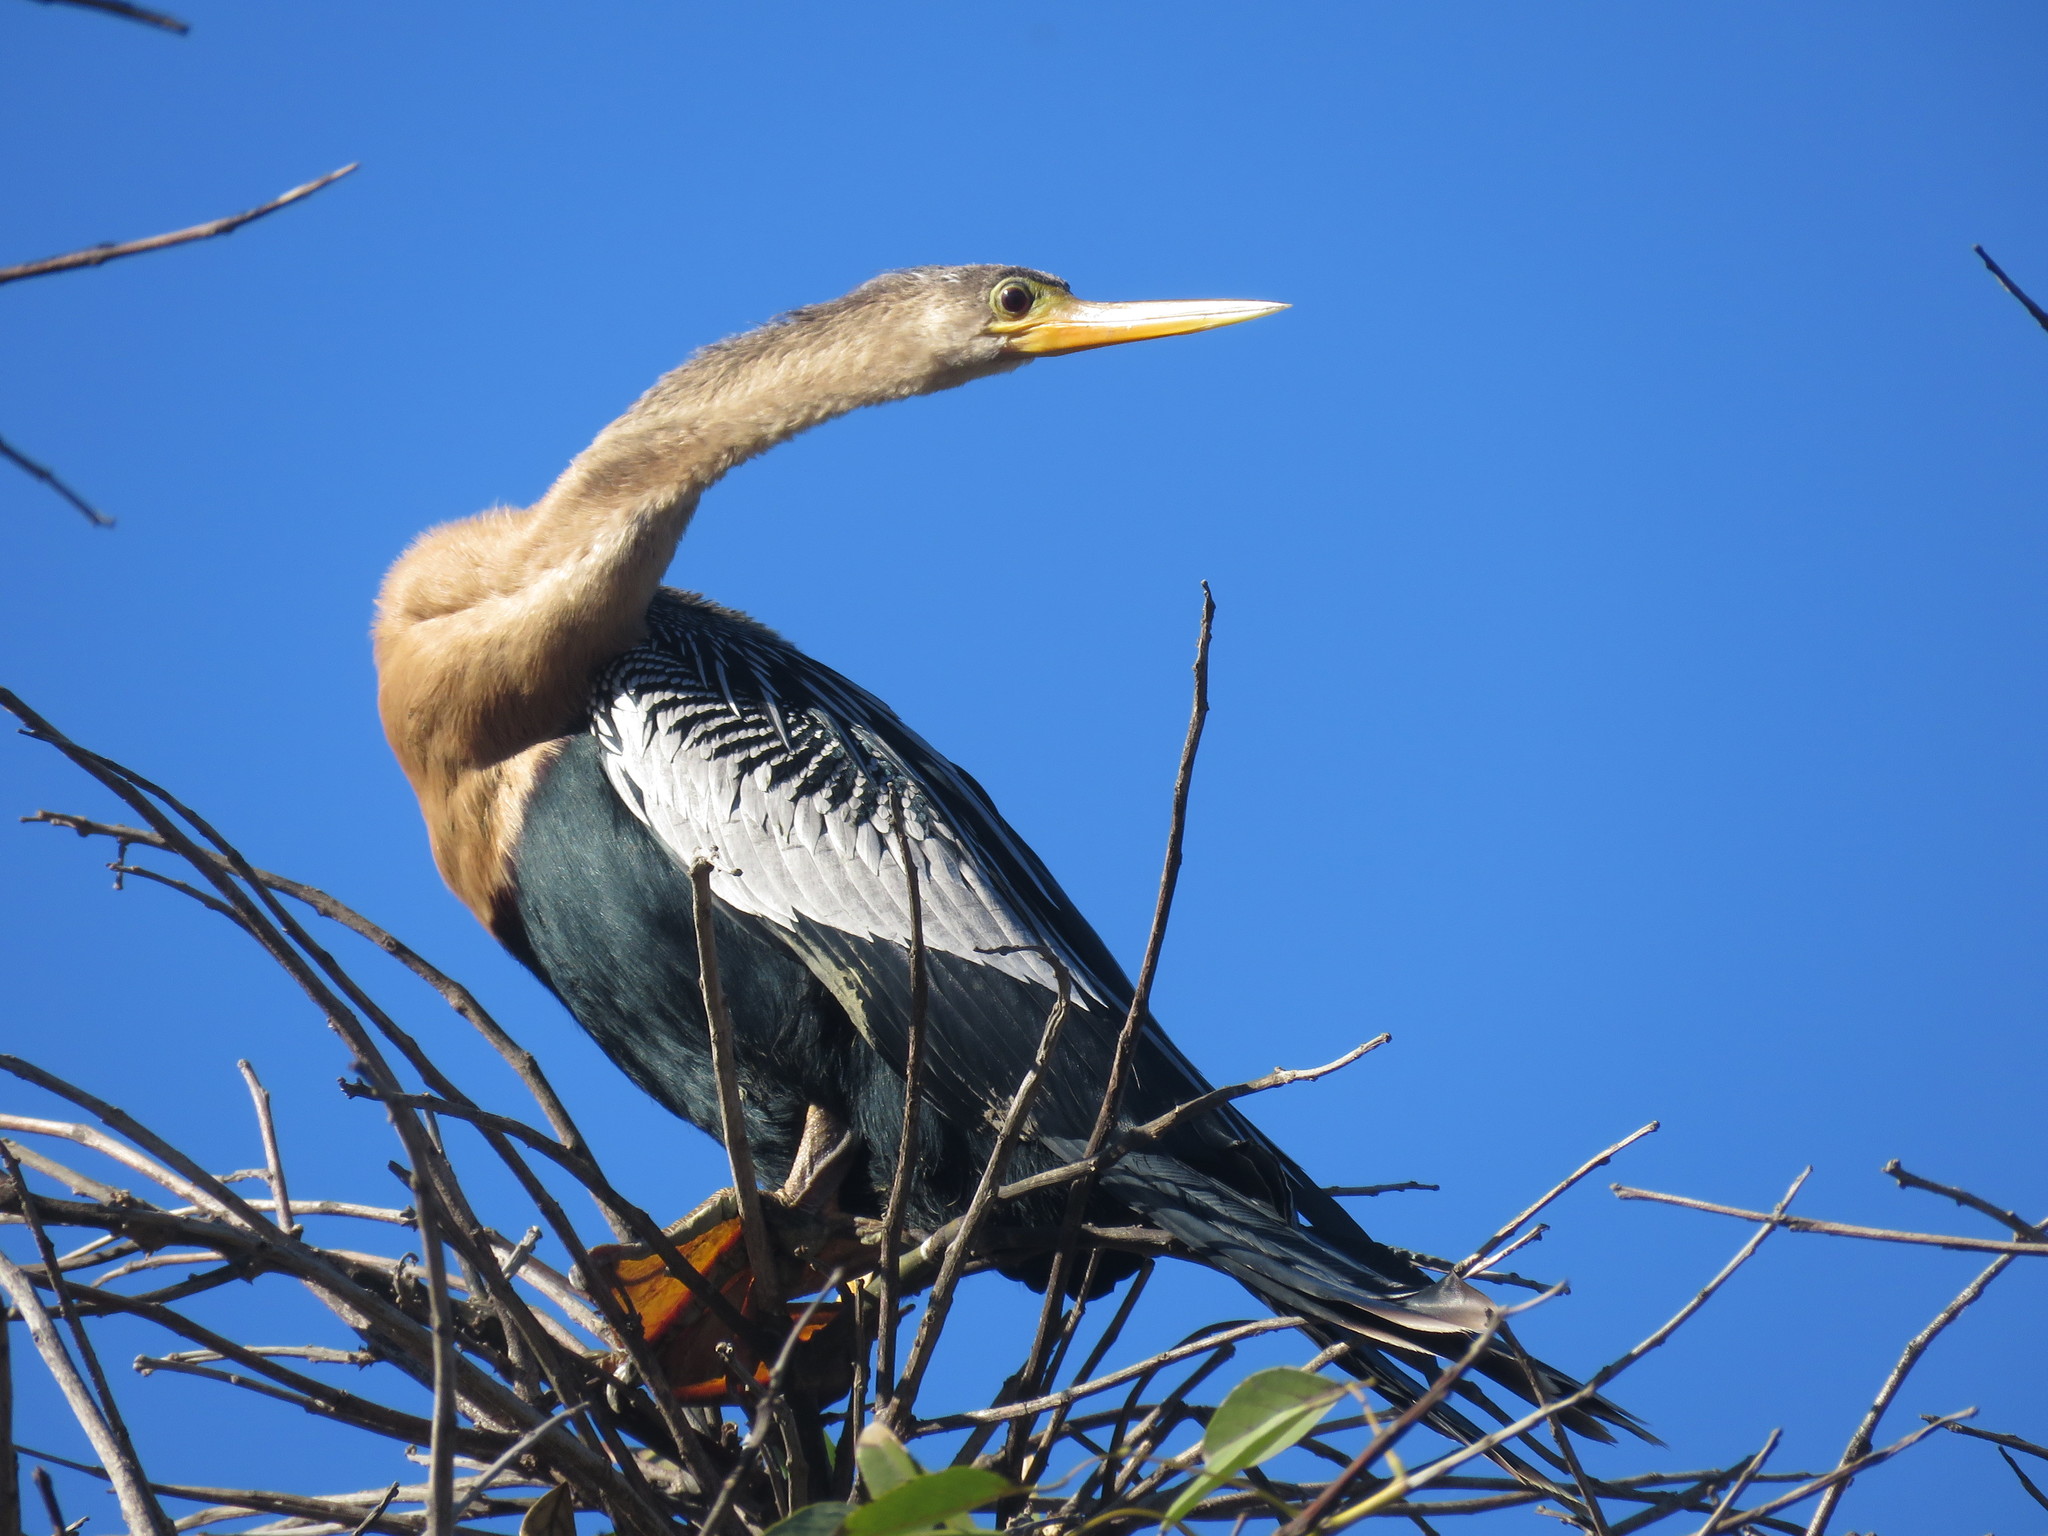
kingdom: Animalia
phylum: Chordata
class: Aves
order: Suliformes
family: Anhingidae
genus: Anhinga
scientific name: Anhinga anhinga
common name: Anhinga
